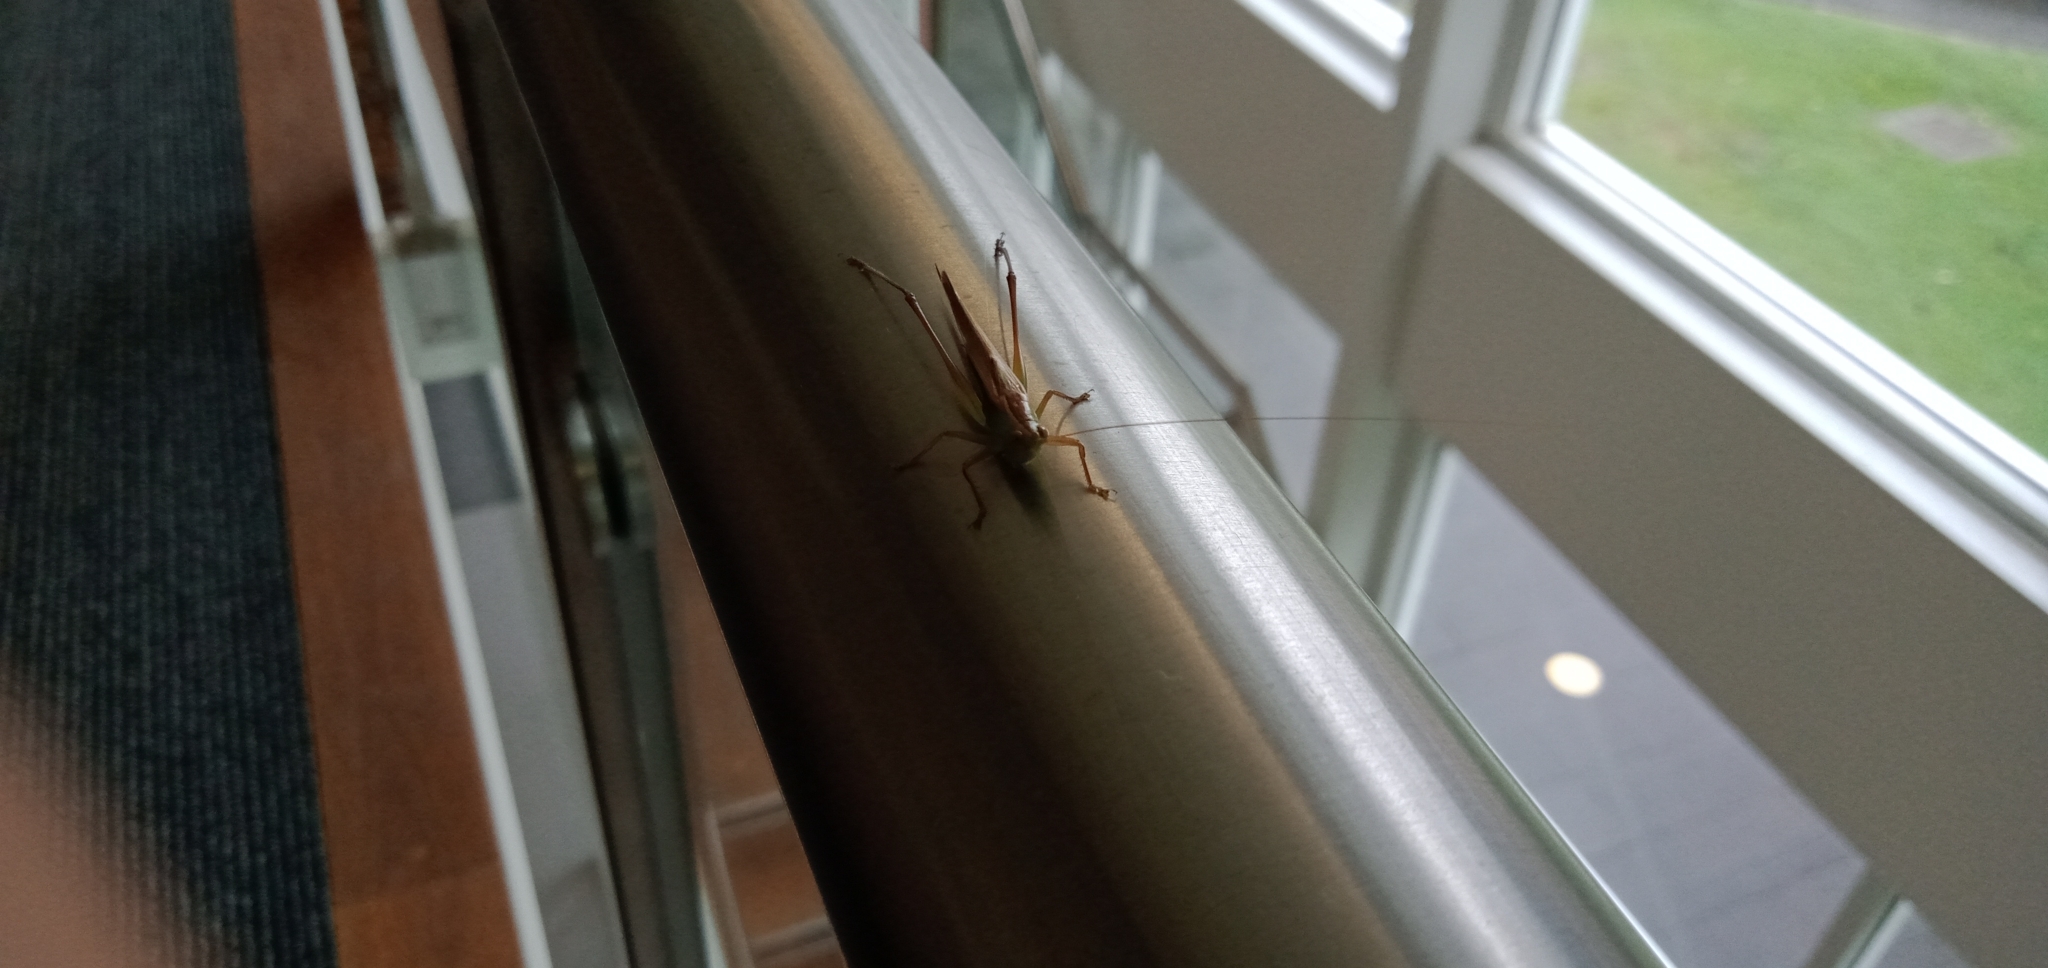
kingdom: Animalia
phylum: Arthropoda
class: Insecta
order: Orthoptera
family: Tettigoniidae
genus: Conocephalus
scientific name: Conocephalus albescens
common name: Whitish meadow katydid
